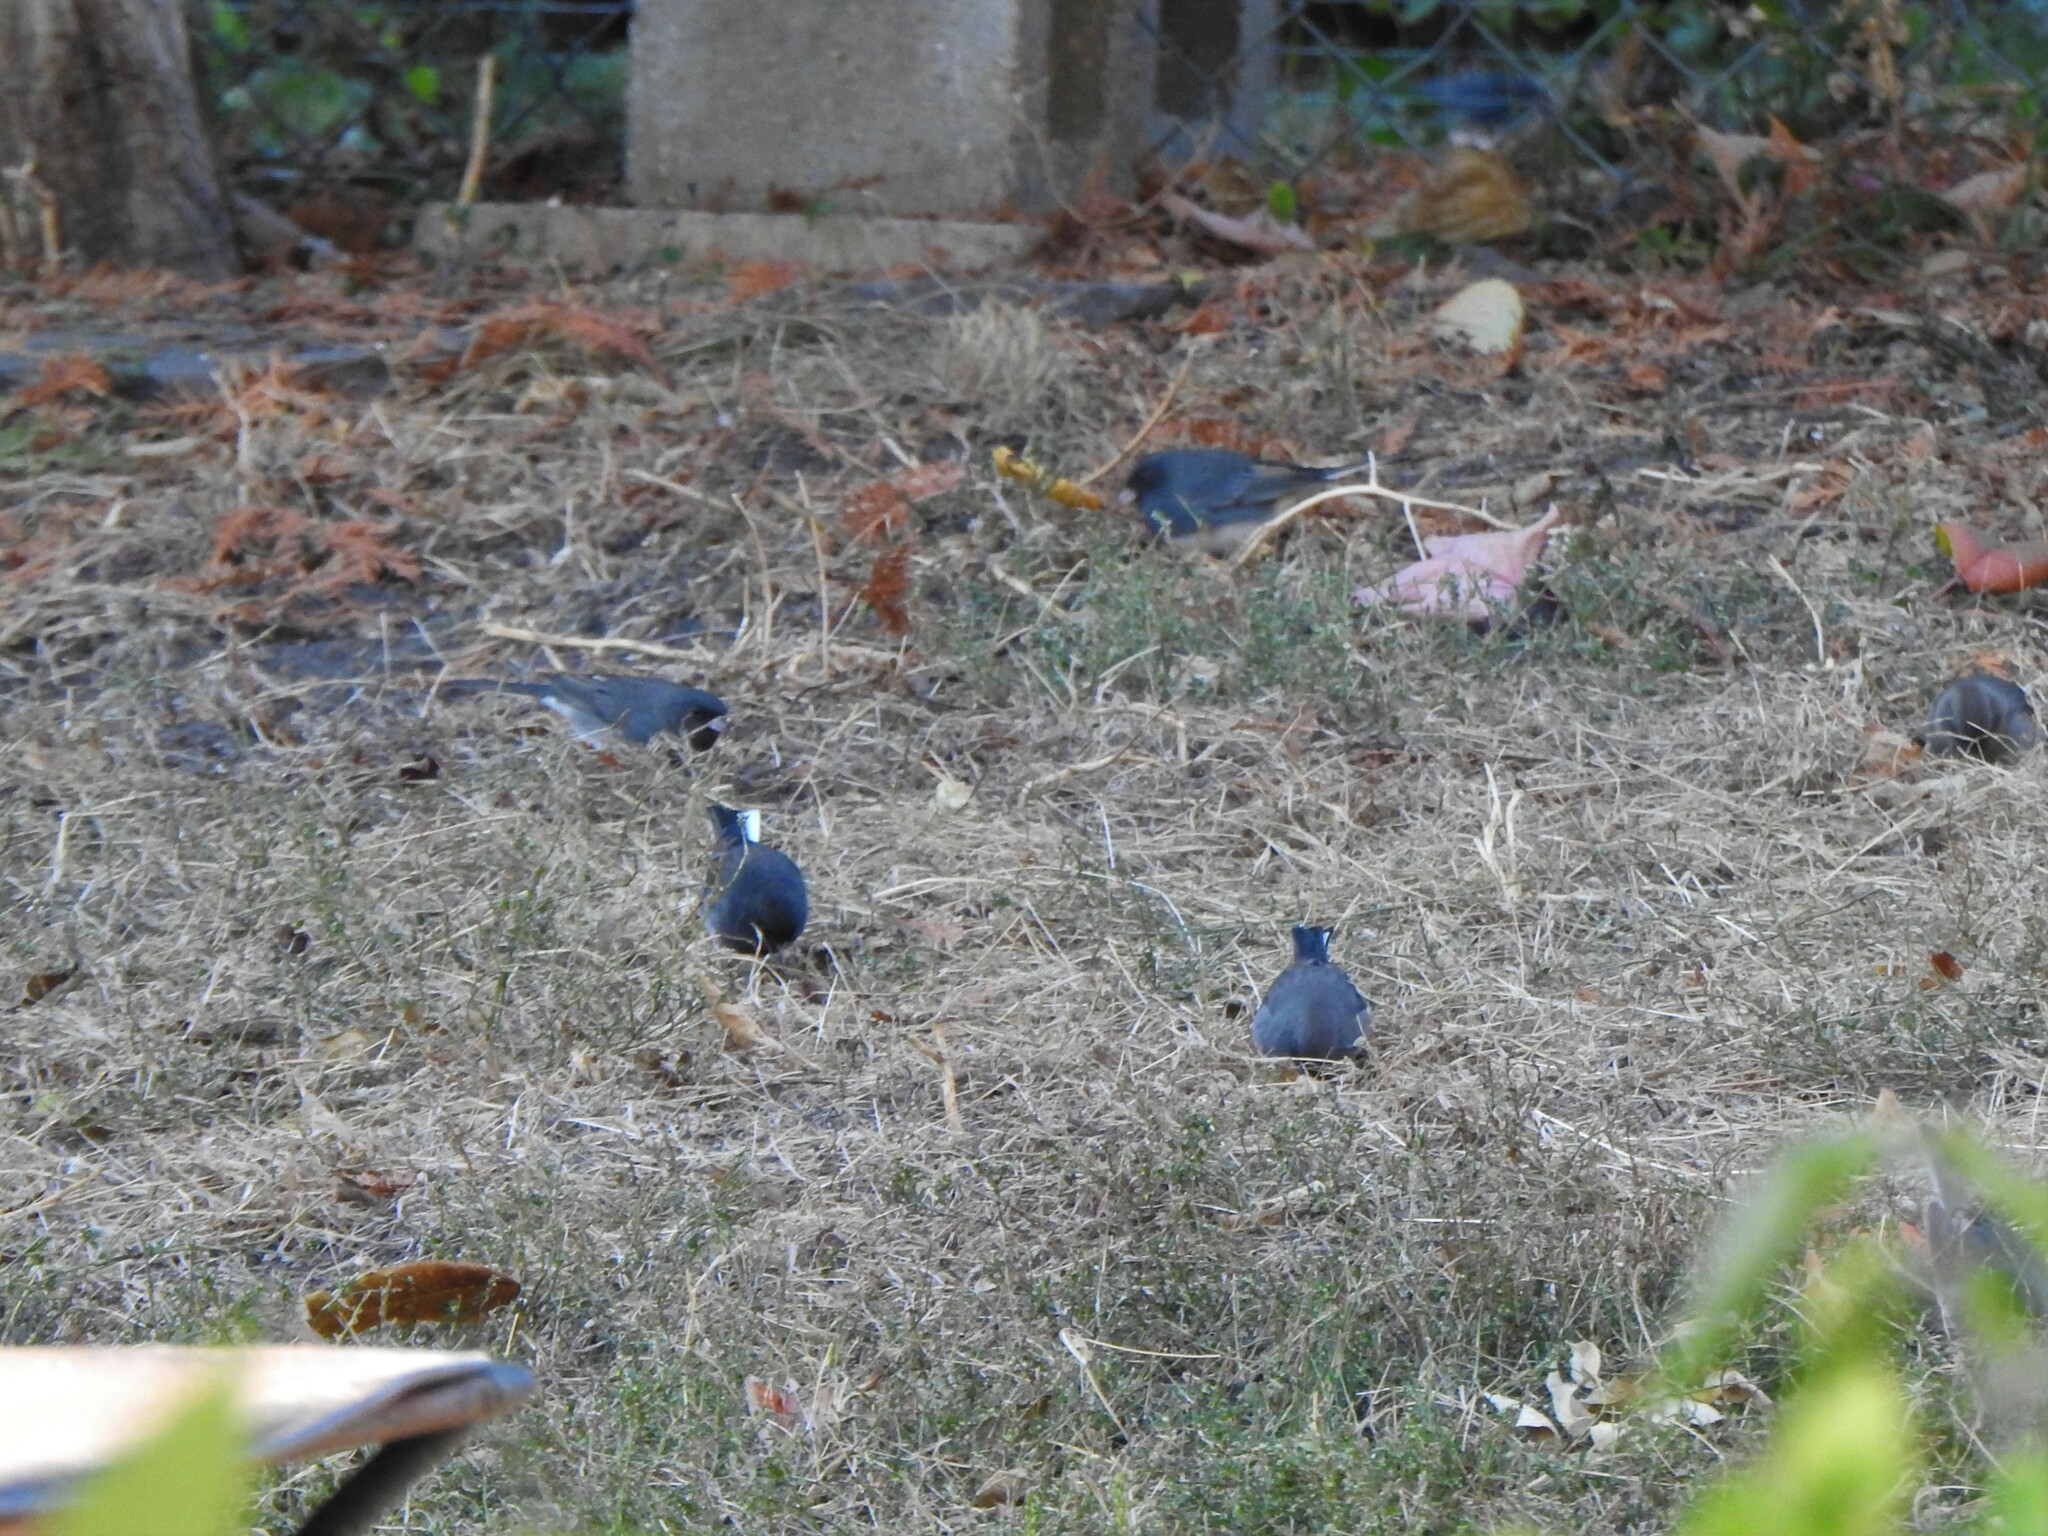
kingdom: Animalia
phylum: Chordata
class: Aves
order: Passeriformes
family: Passerellidae
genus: Junco
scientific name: Junco hyemalis
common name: Dark-eyed junco
